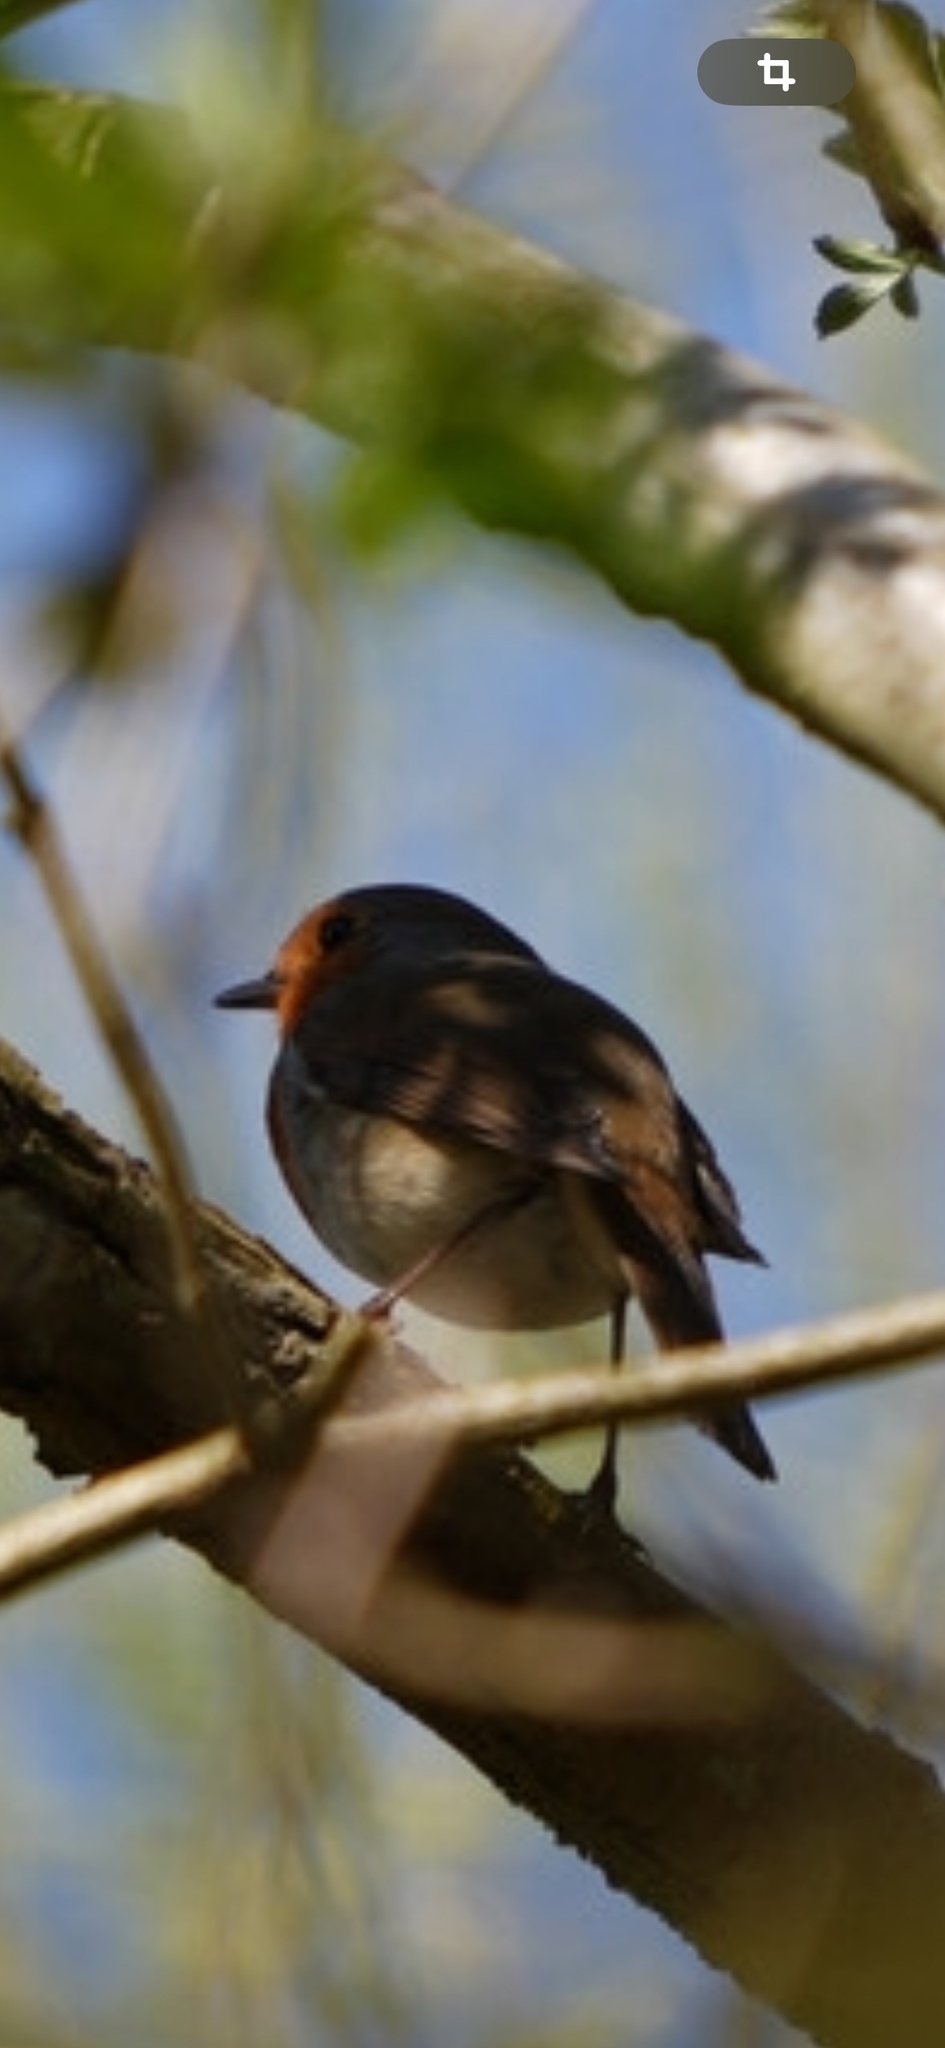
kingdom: Animalia
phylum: Chordata
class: Aves
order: Passeriformes
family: Muscicapidae
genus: Erithacus
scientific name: Erithacus rubecula
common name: European robin
